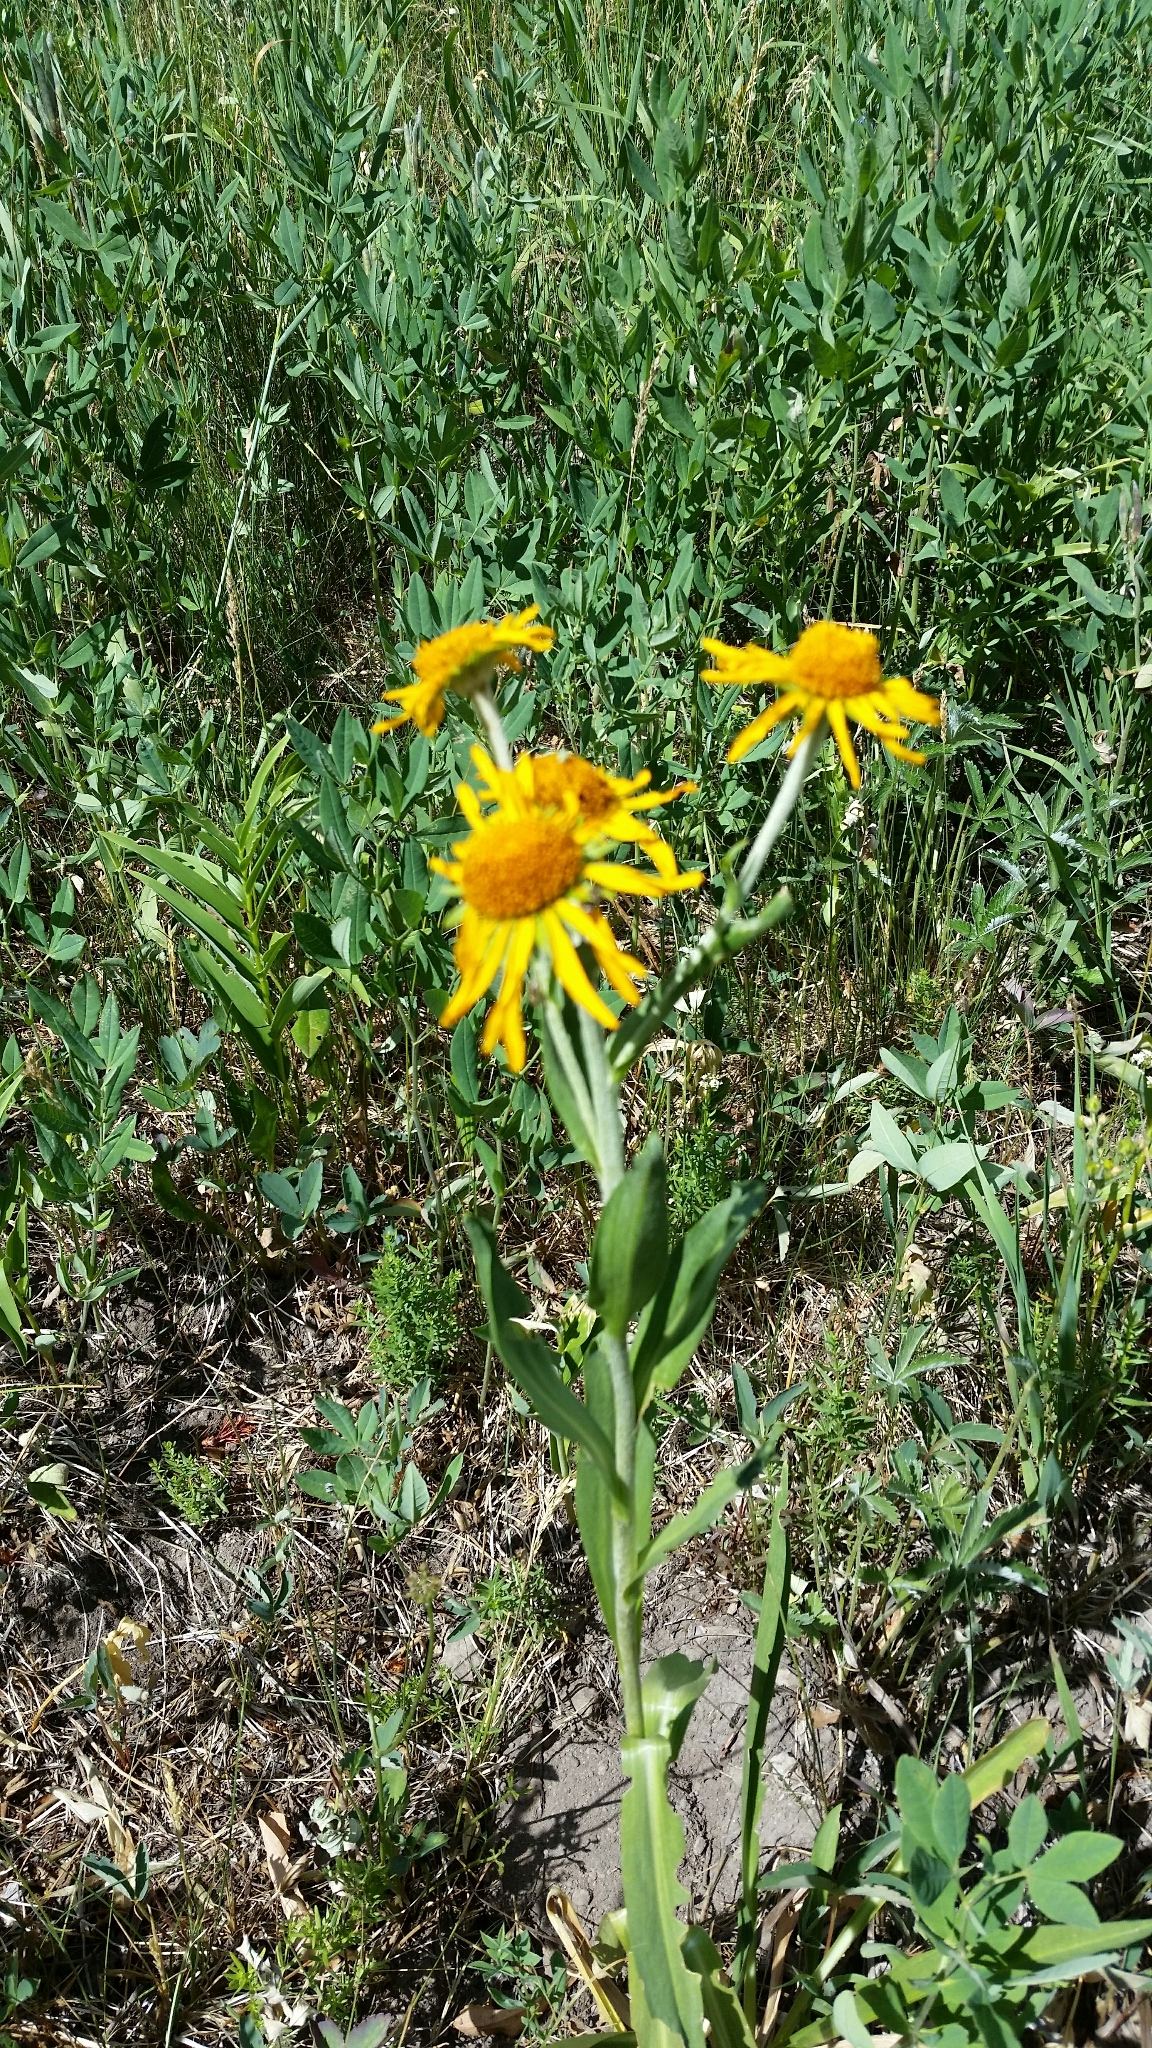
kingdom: Plantae
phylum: Tracheophyta
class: Magnoliopsida
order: Asterales
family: Asteraceae
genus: Hymenoxys
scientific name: Hymenoxys hoopesii
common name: Orange-sneezeweed
